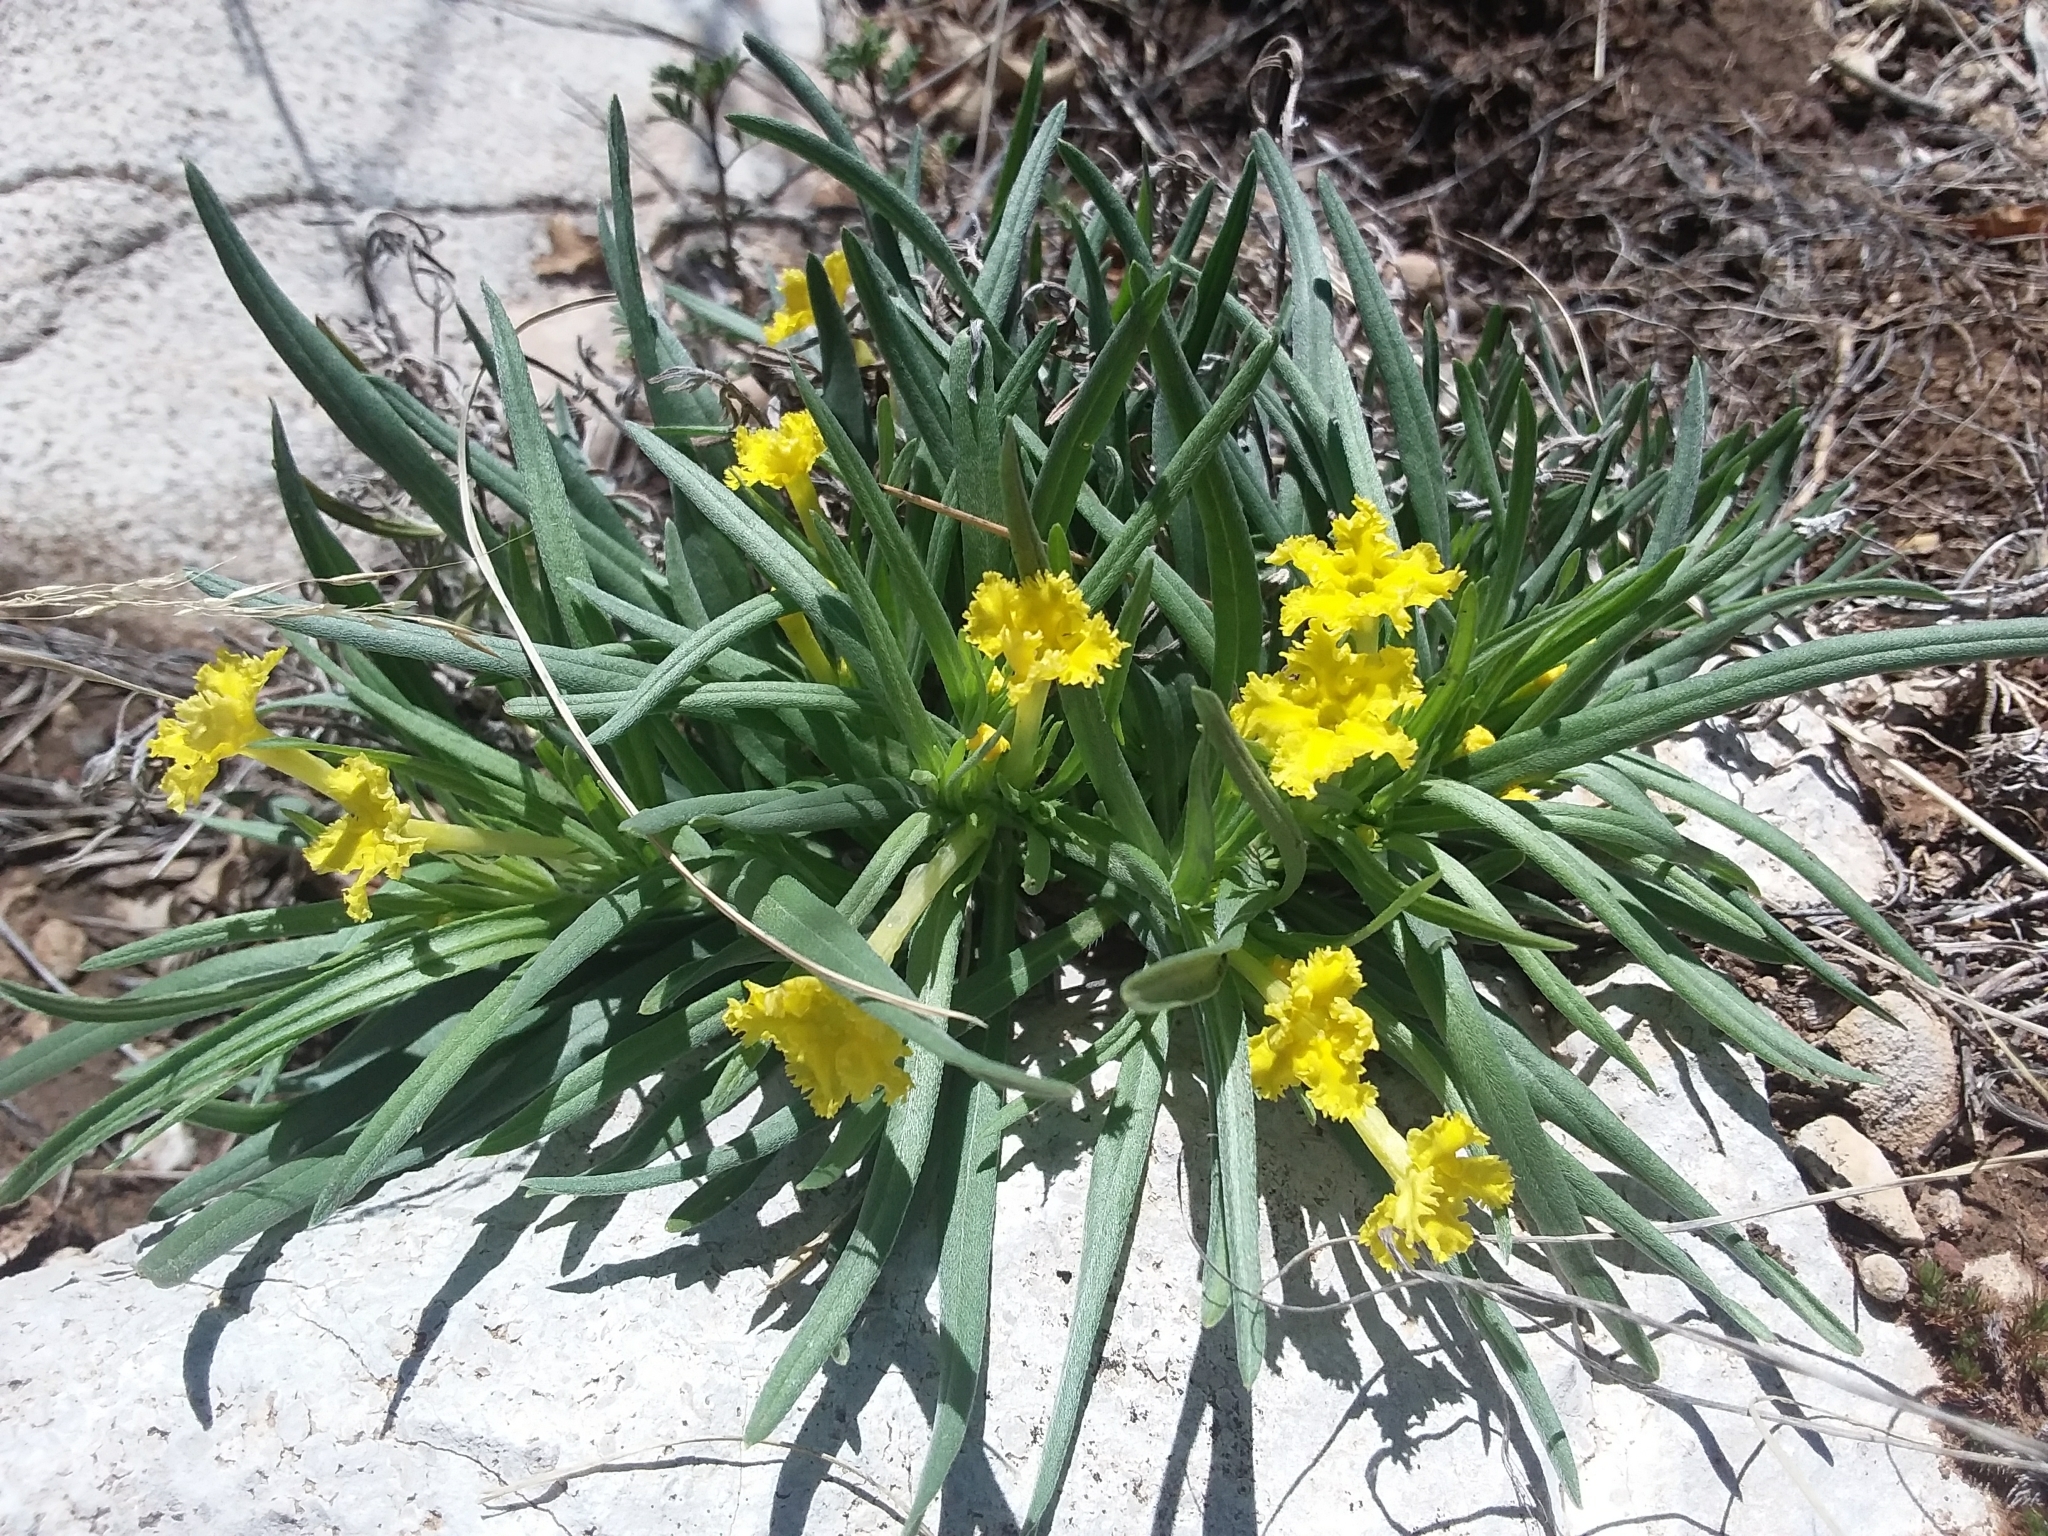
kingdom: Plantae
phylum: Tracheophyta
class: Magnoliopsida
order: Boraginales
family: Boraginaceae
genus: Lithospermum
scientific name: Lithospermum incisum
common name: Fringed gromwell
